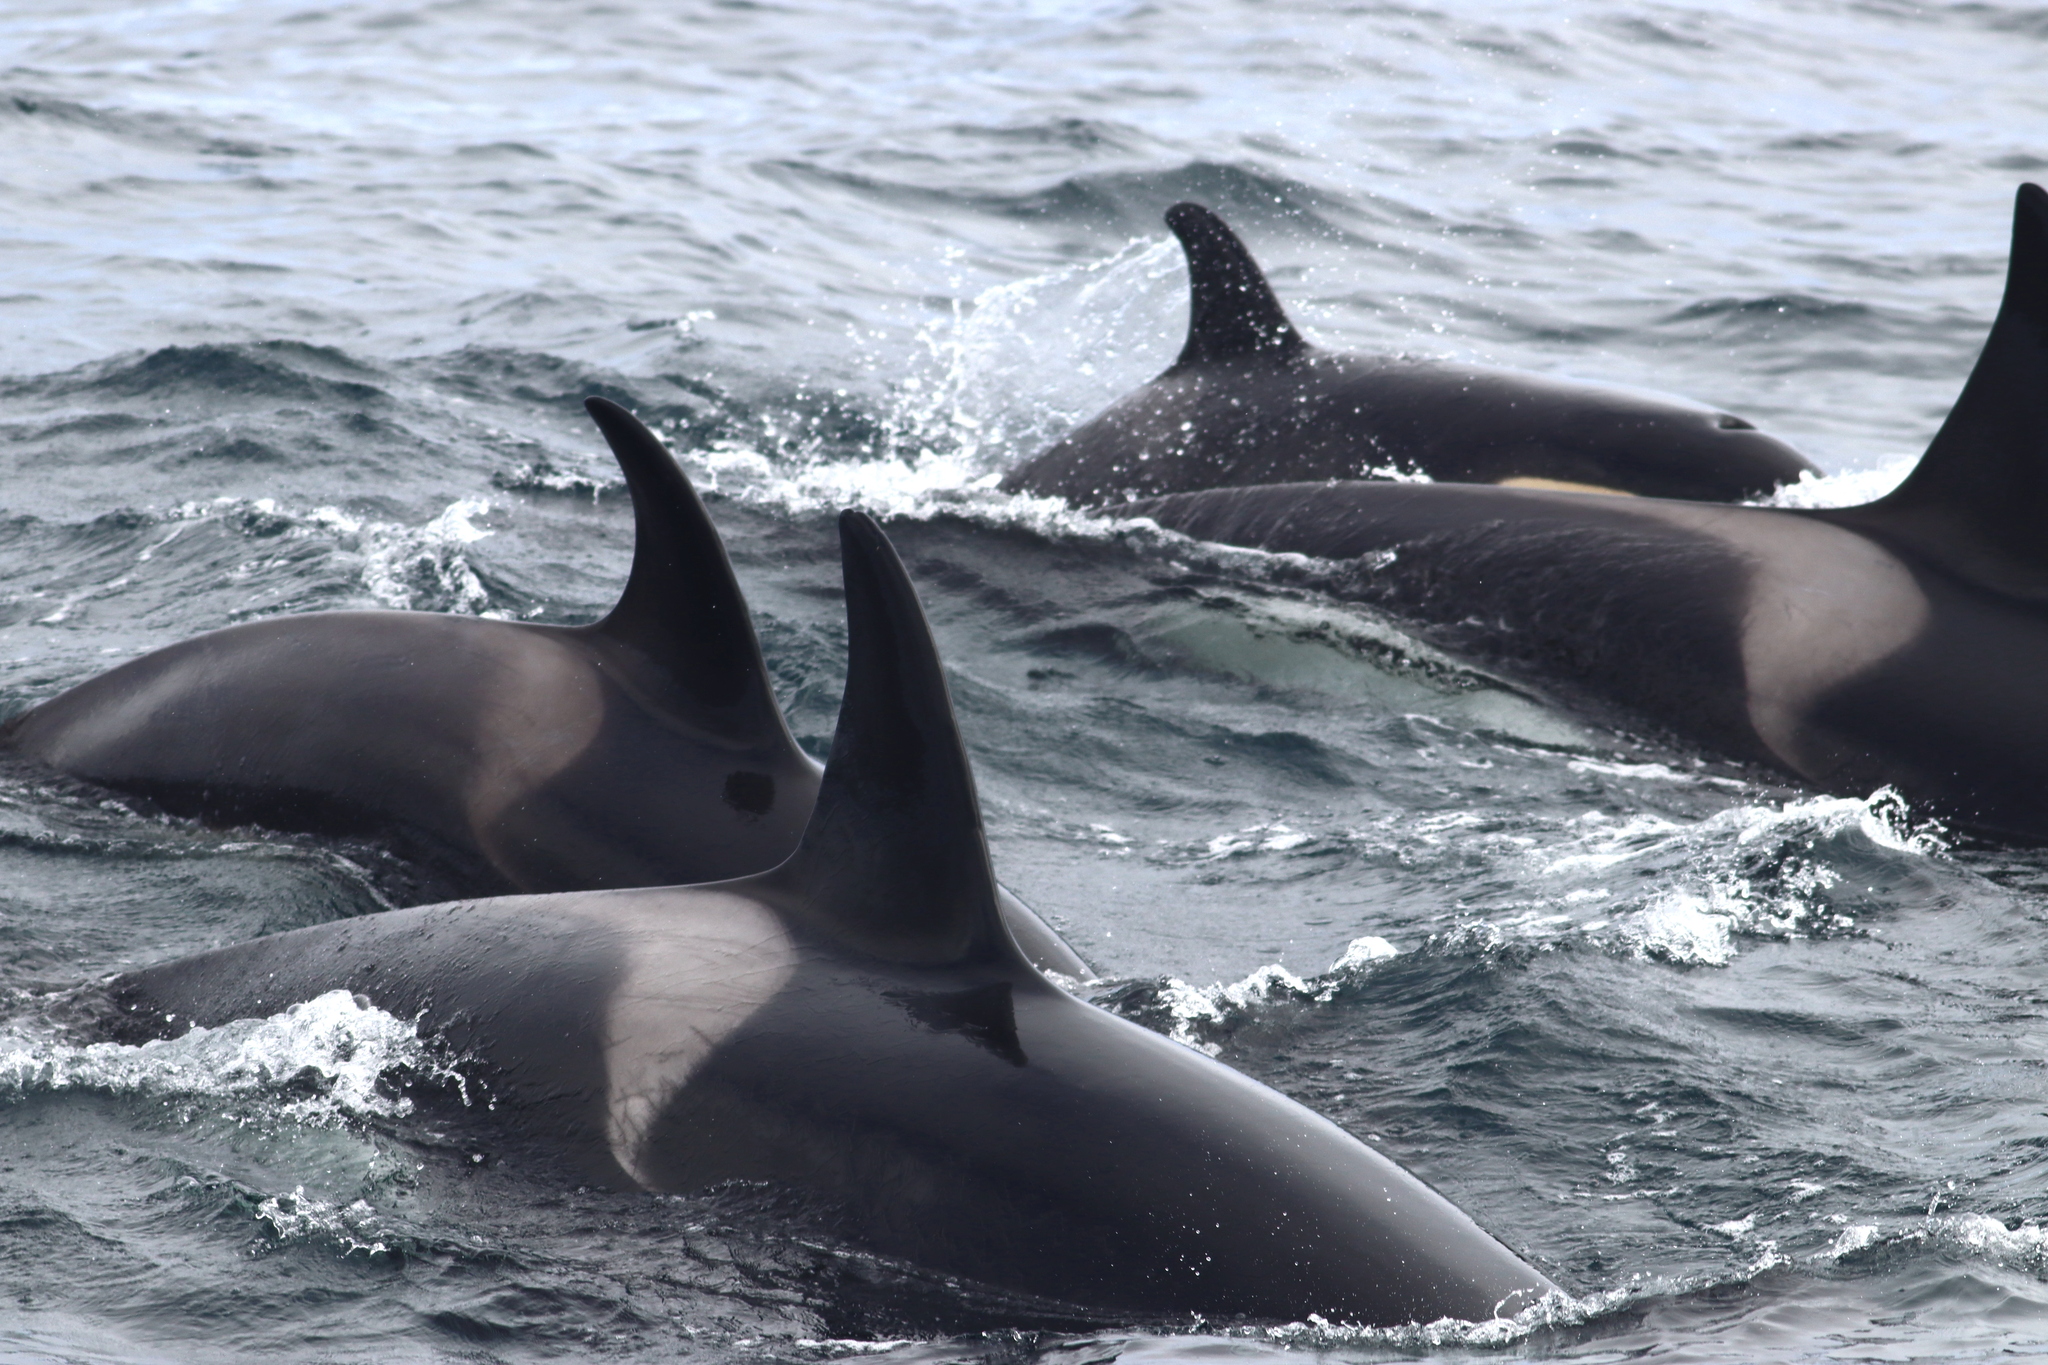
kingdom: Animalia
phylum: Chordata
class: Mammalia
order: Cetacea
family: Delphinidae
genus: Orcinus
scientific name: Orcinus orca
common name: Killer whale
